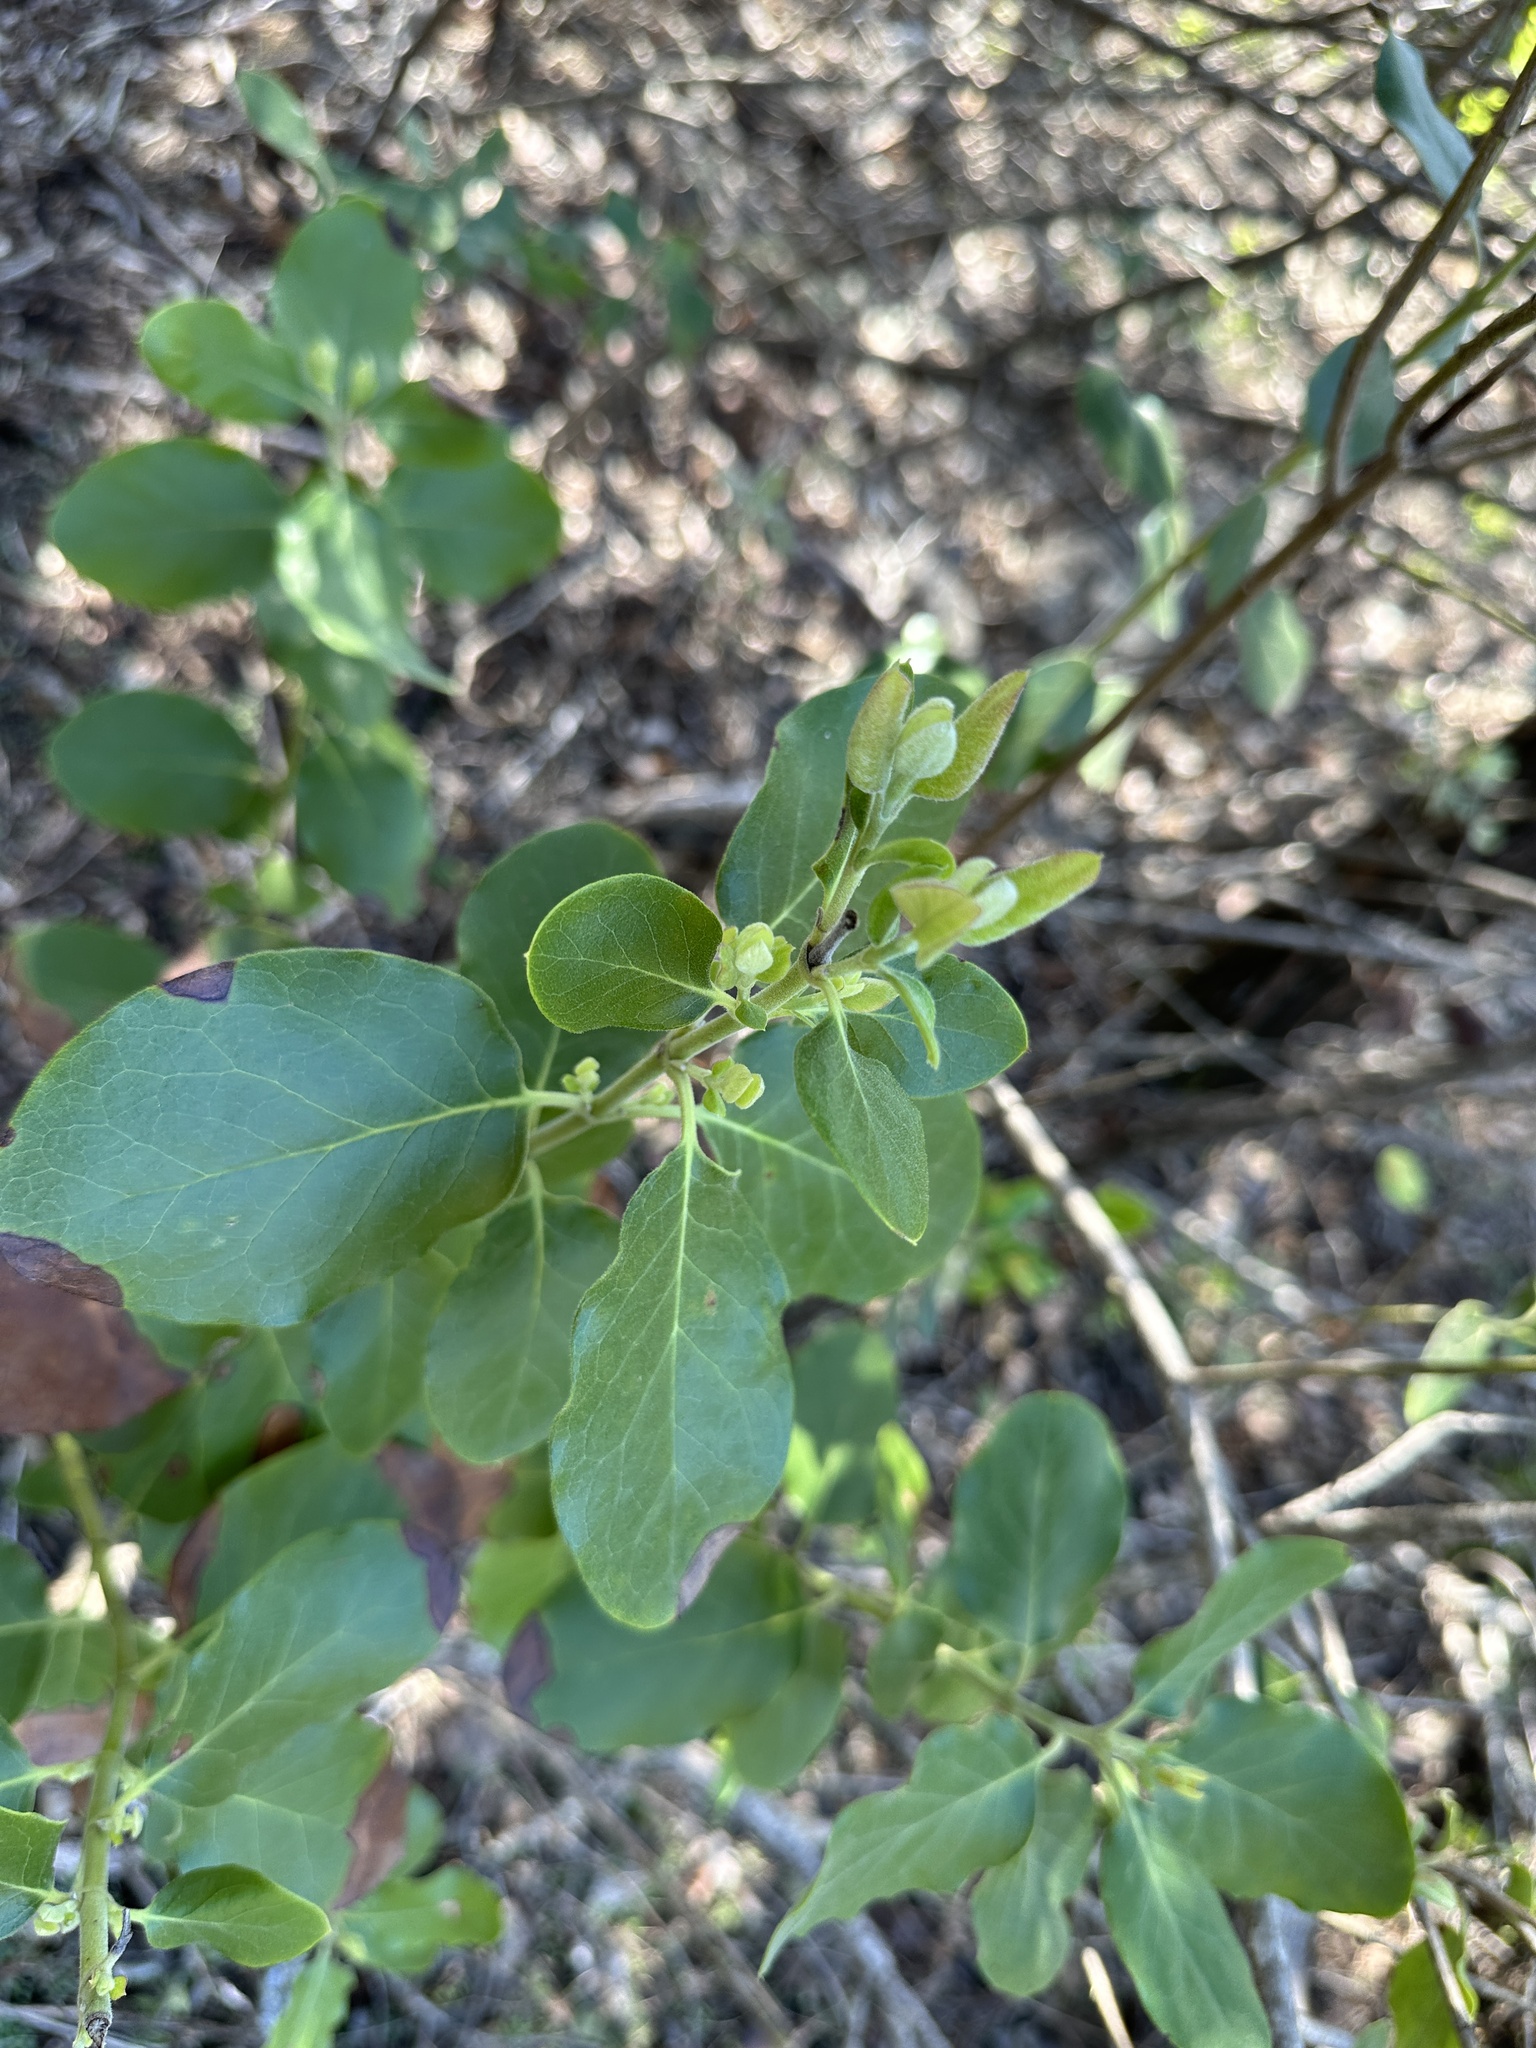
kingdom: Plantae
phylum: Tracheophyta
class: Magnoliopsida
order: Garryales
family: Garryaceae
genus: Garrya
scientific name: Garrya lindheimeri
